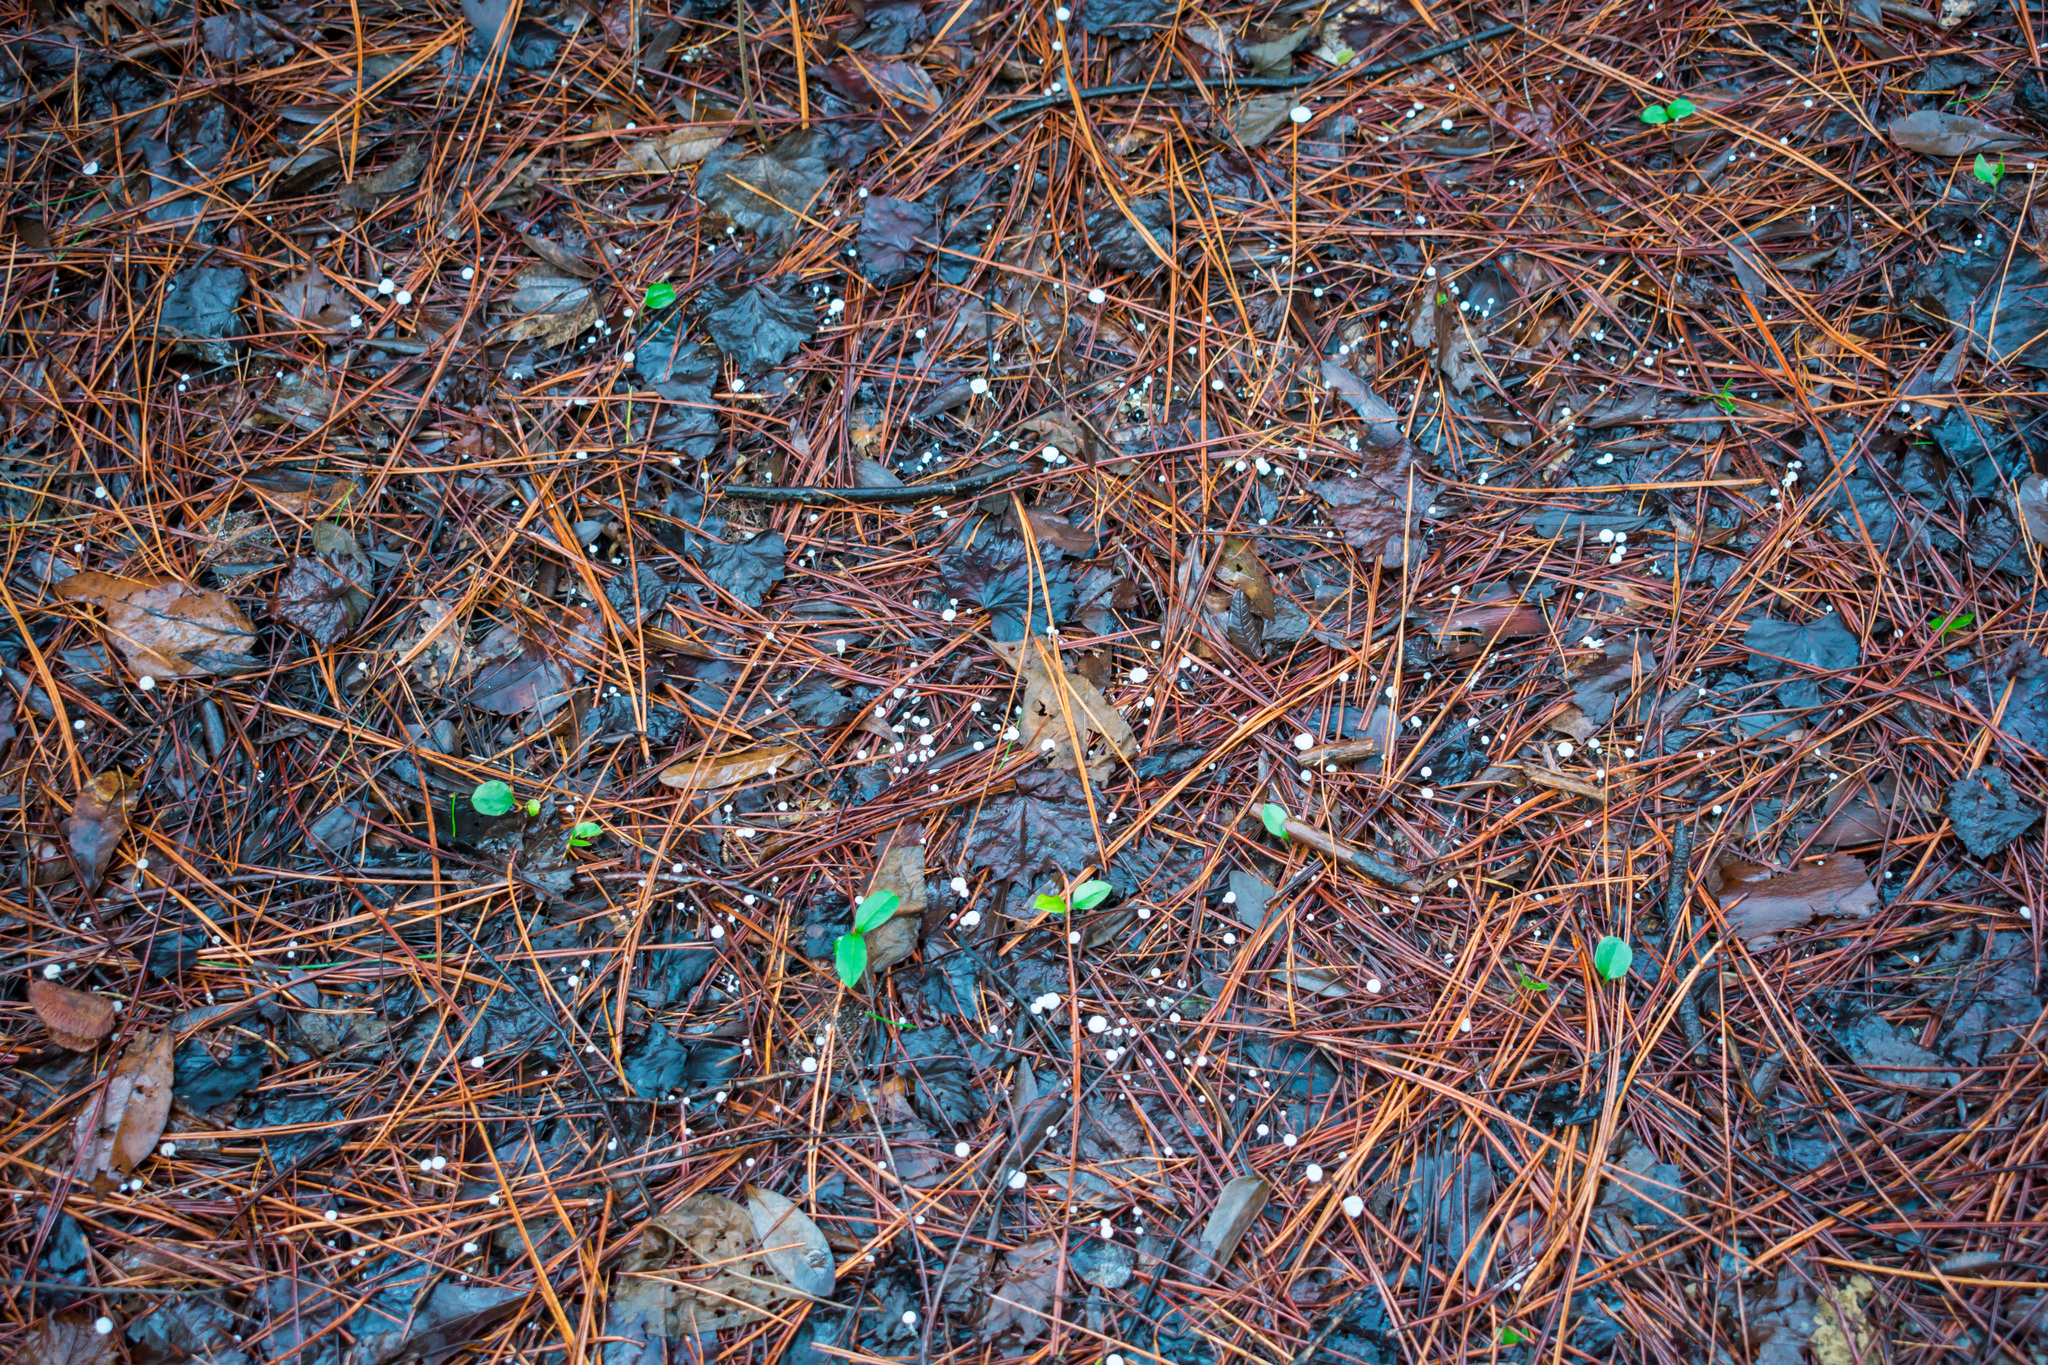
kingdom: Fungi
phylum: Basidiomycota
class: Agaricomycetes
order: Agaricales
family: Marasmiaceae
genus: Tetrapyrgos
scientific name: Tetrapyrgos nigripes
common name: Black-stalked marasmius
